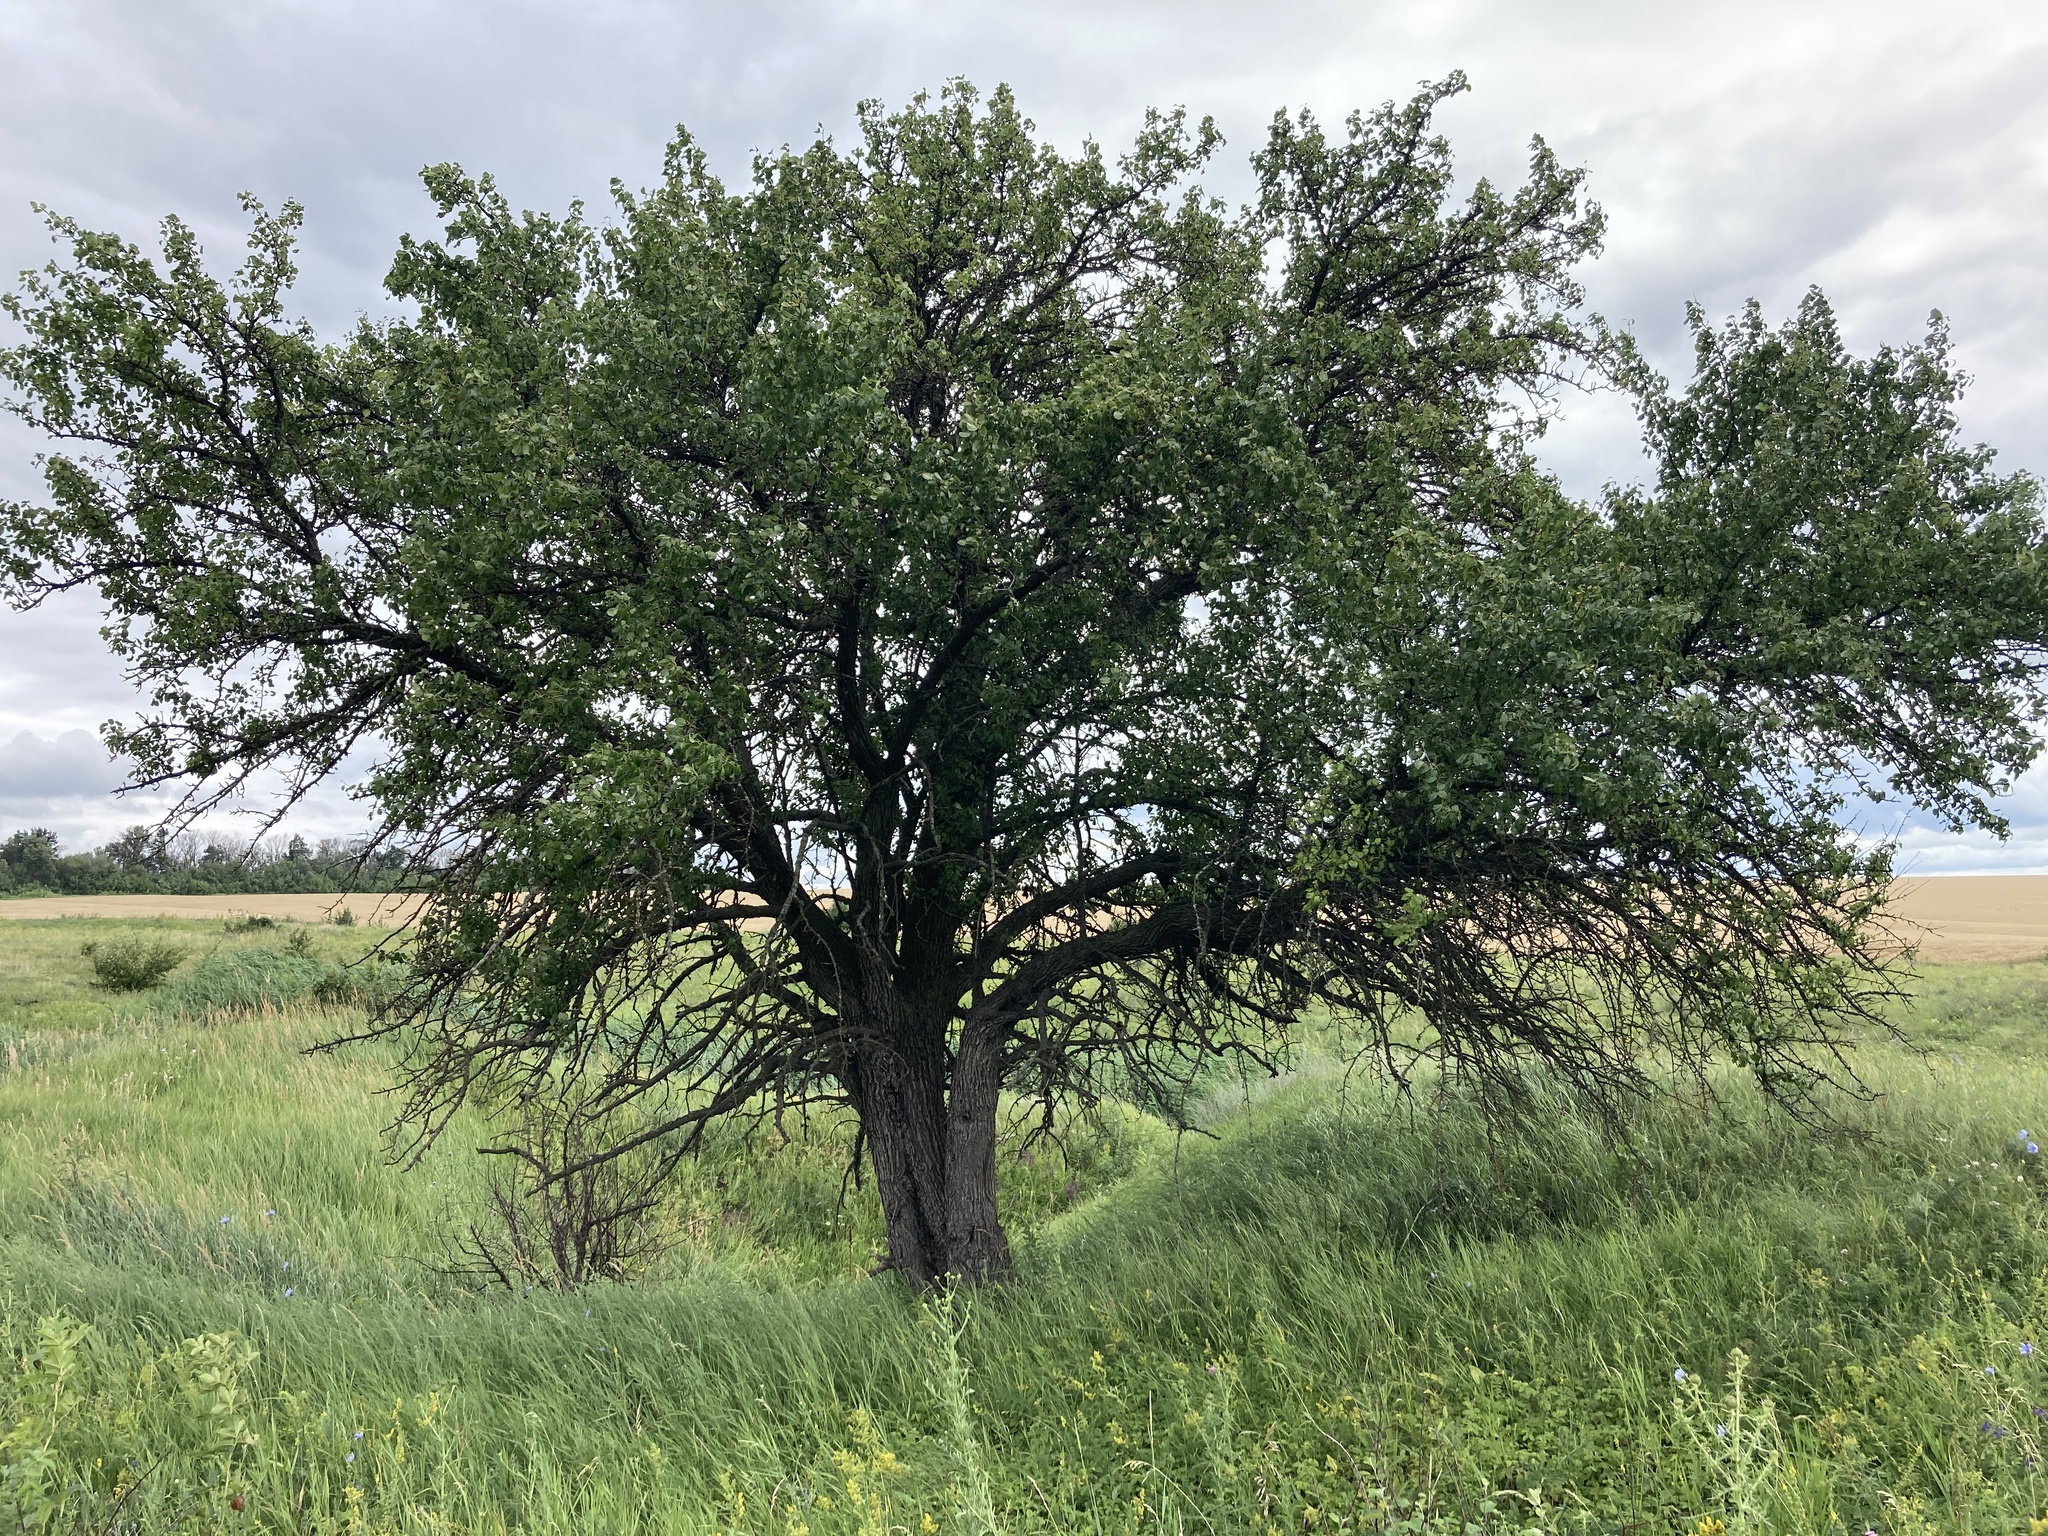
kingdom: Plantae
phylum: Tracheophyta
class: Magnoliopsida
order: Rosales
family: Rosaceae
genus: Pyrus
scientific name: Pyrus communis
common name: Pear
